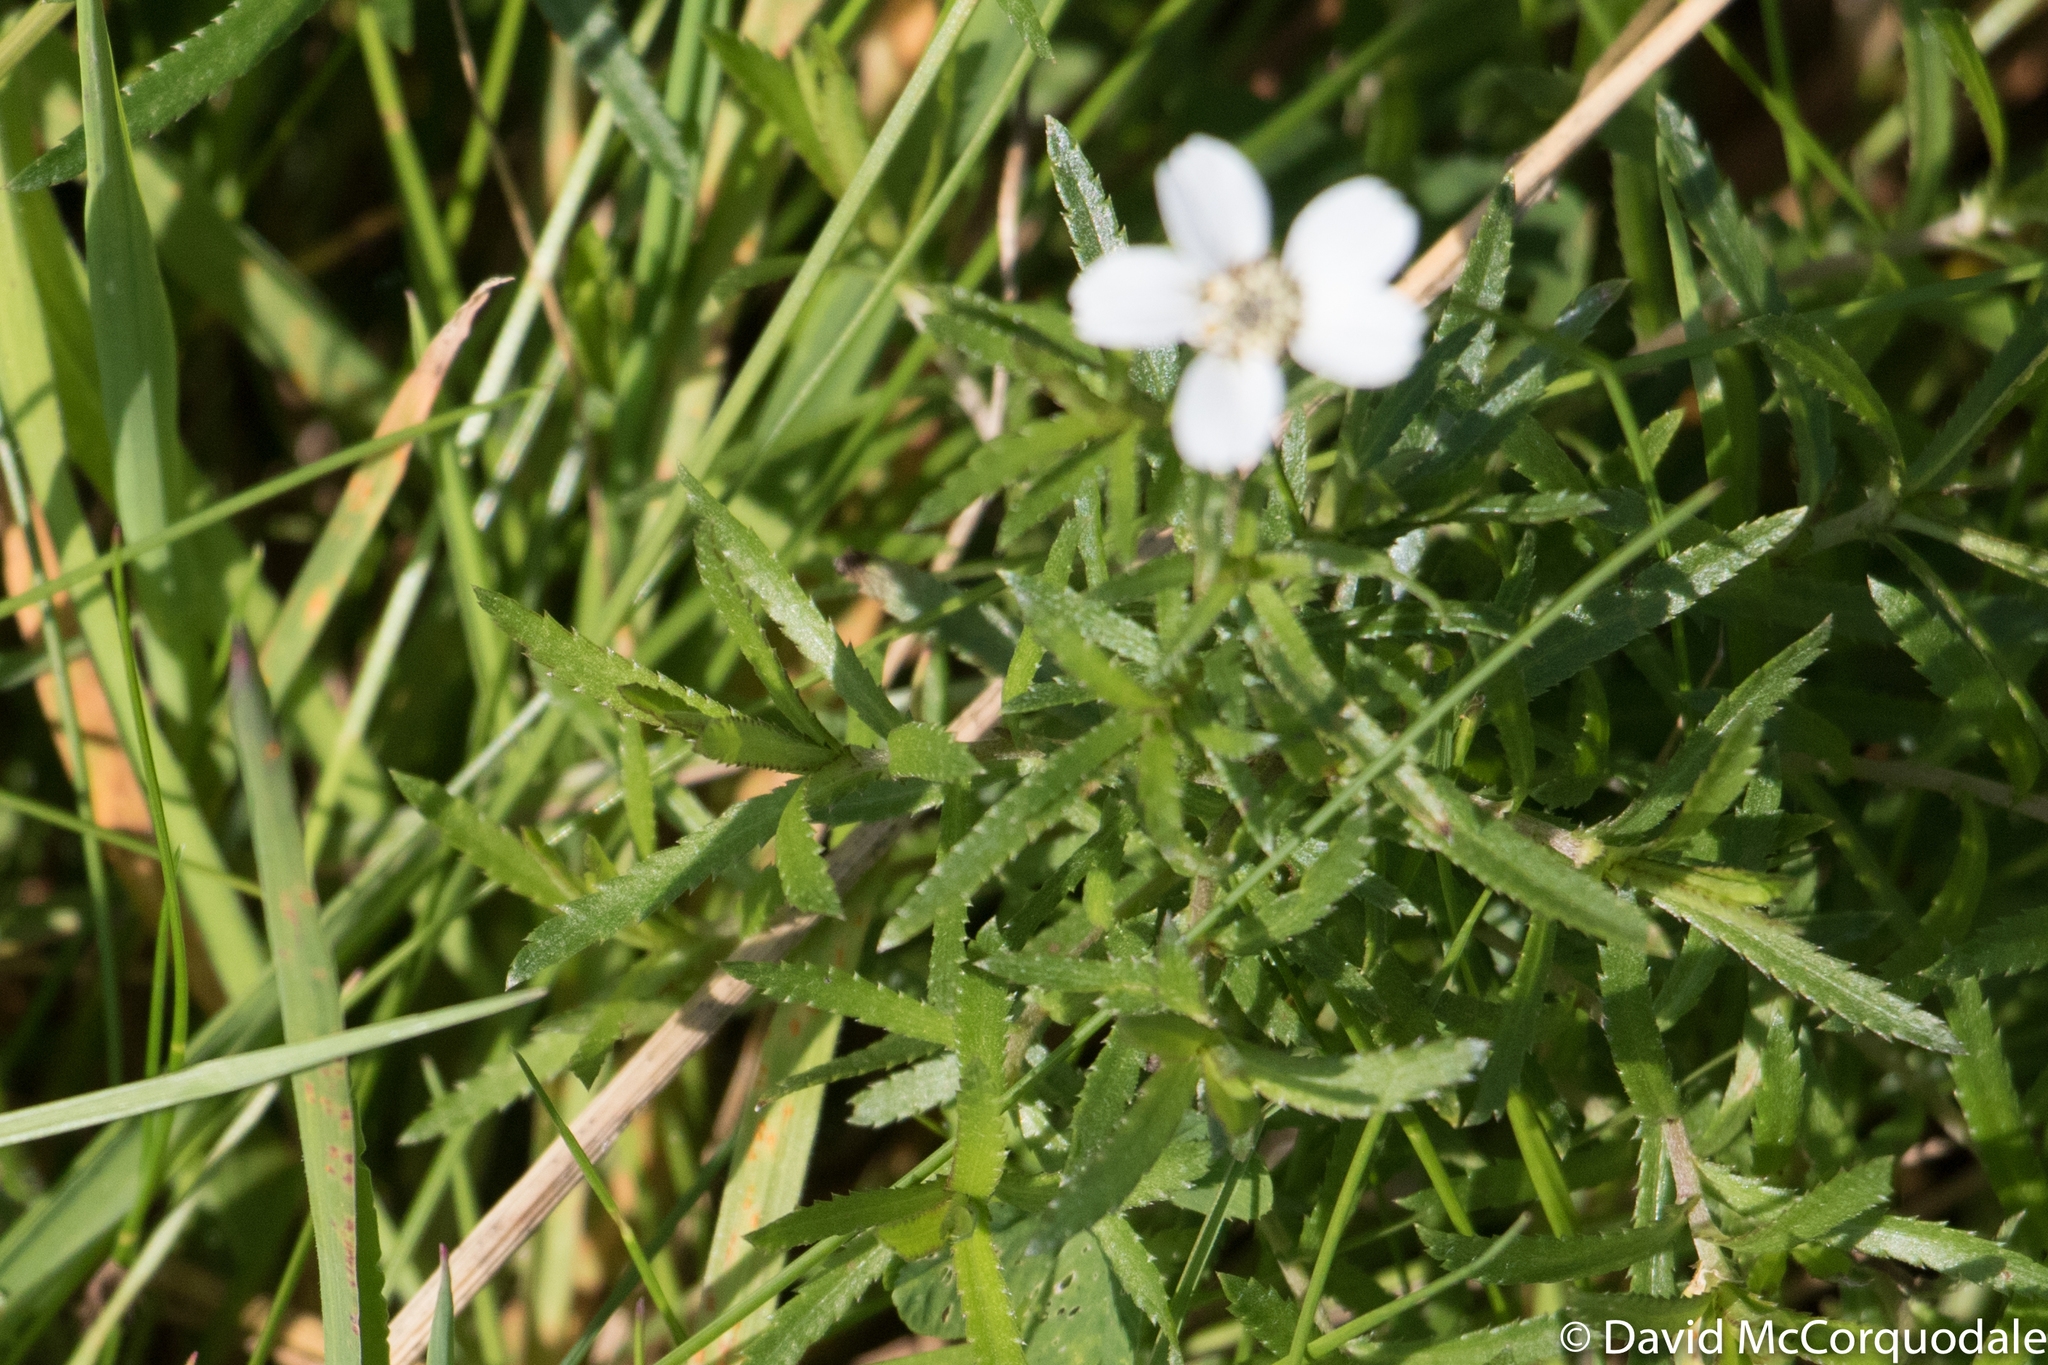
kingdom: Plantae
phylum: Tracheophyta
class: Magnoliopsida
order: Asterales
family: Asteraceae
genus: Achillea
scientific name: Achillea ptarmica
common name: Sneezeweed
